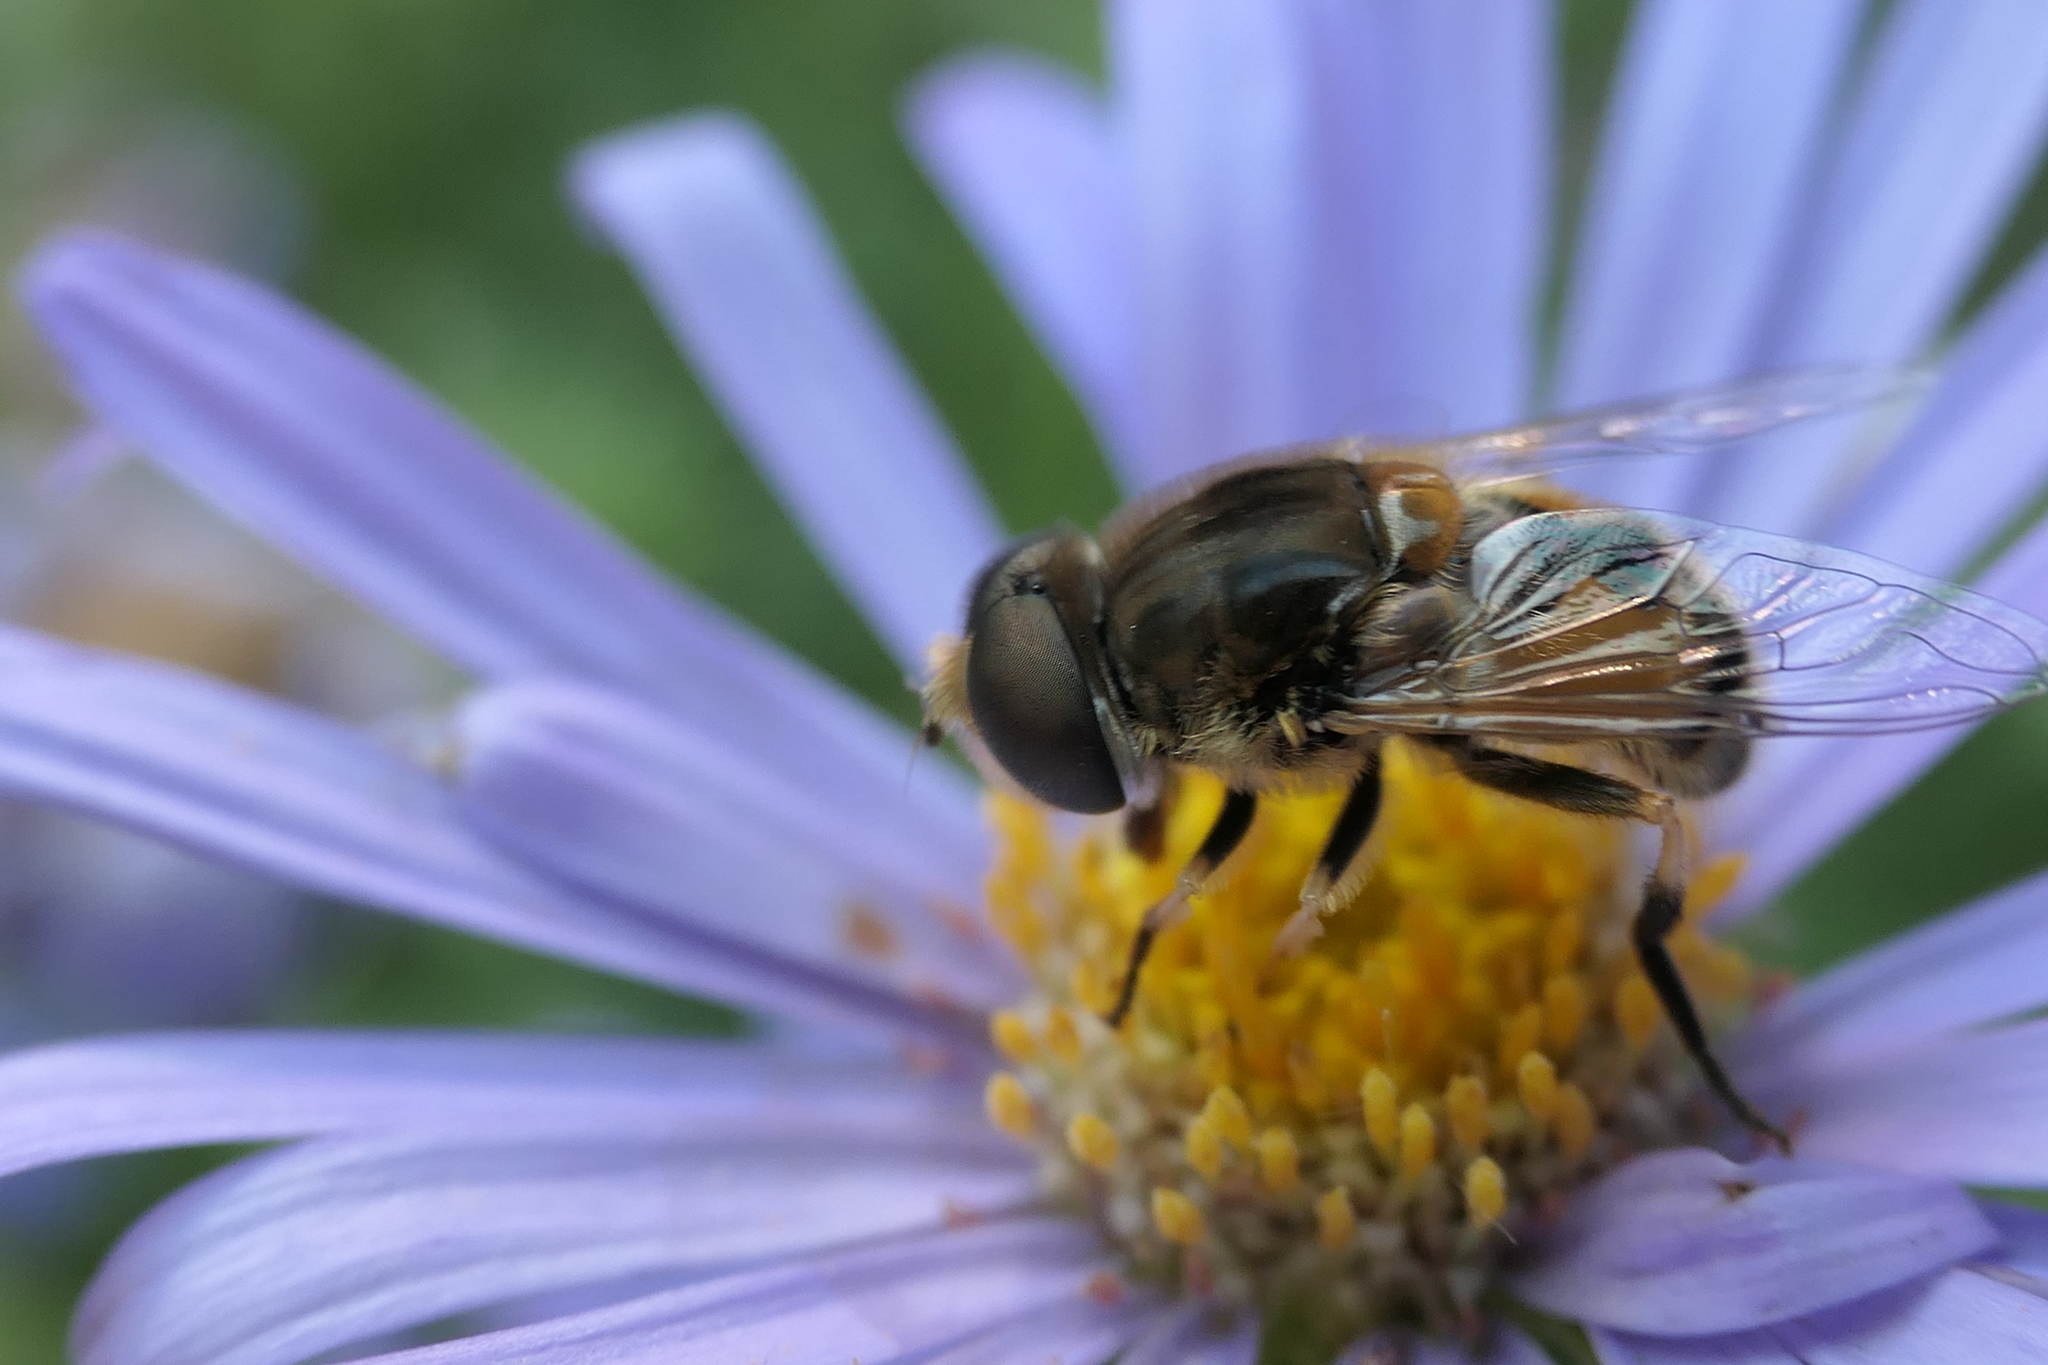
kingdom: Animalia
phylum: Arthropoda
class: Insecta
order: Diptera
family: Syrphidae
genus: Eristalis
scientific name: Eristalis arbustorum
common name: Hover fly
